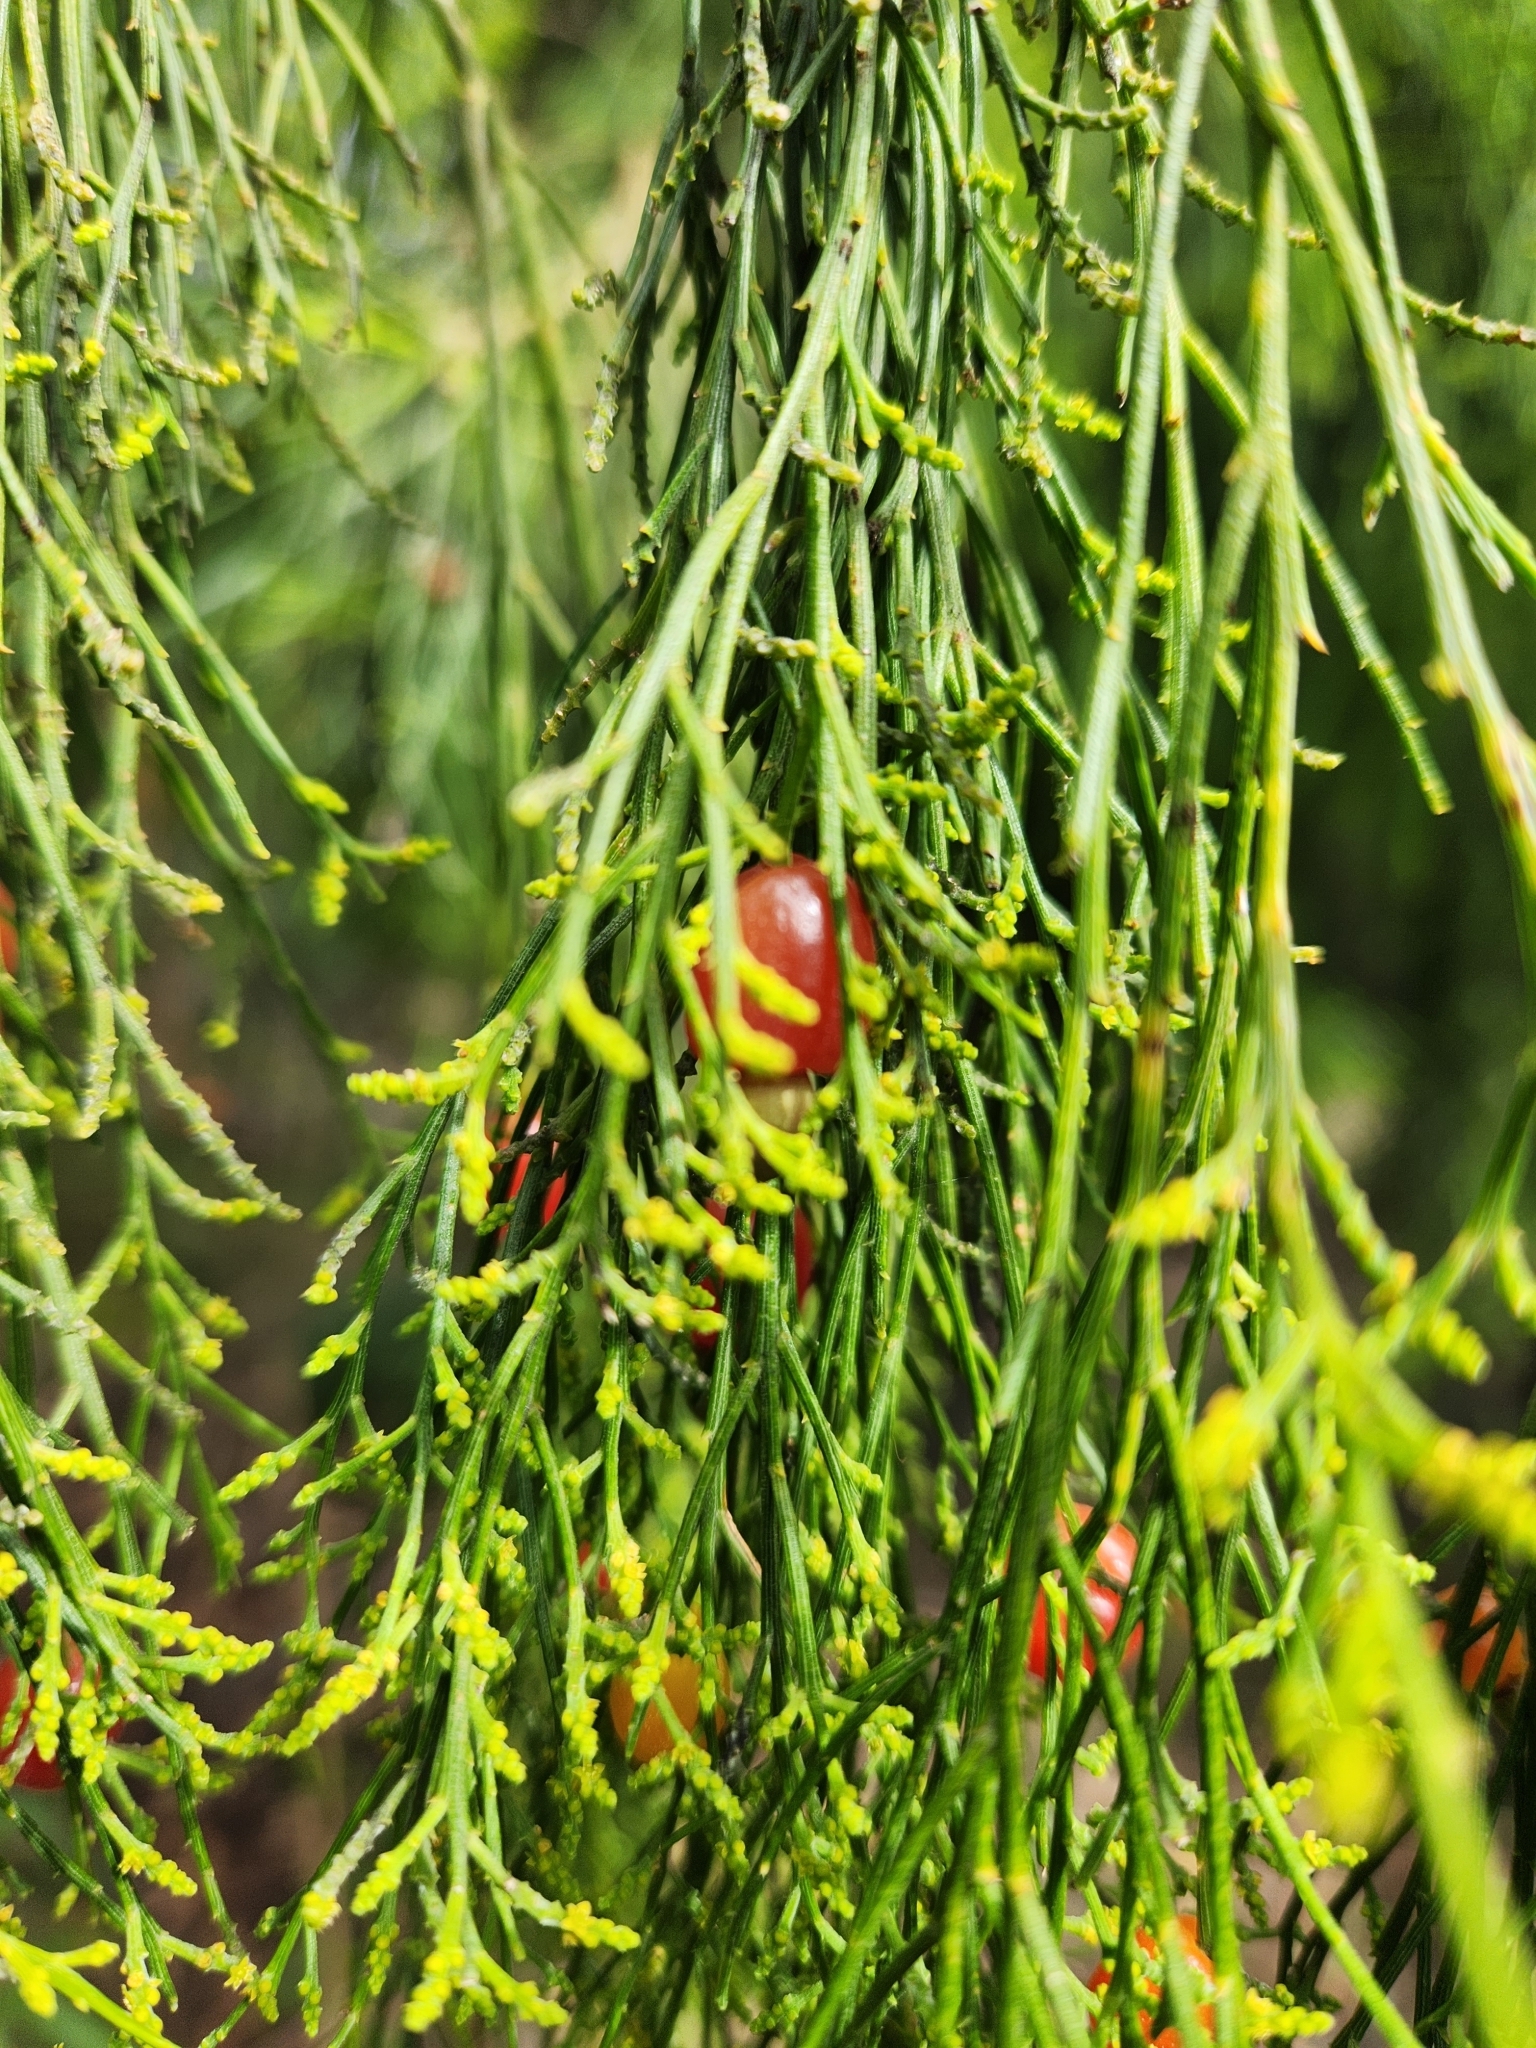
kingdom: Plantae
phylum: Tracheophyta
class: Magnoliopsida
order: Santalales
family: Santalaceae
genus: Exocarpos
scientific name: Exocarpos cupressiformis
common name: Cherry ballart
